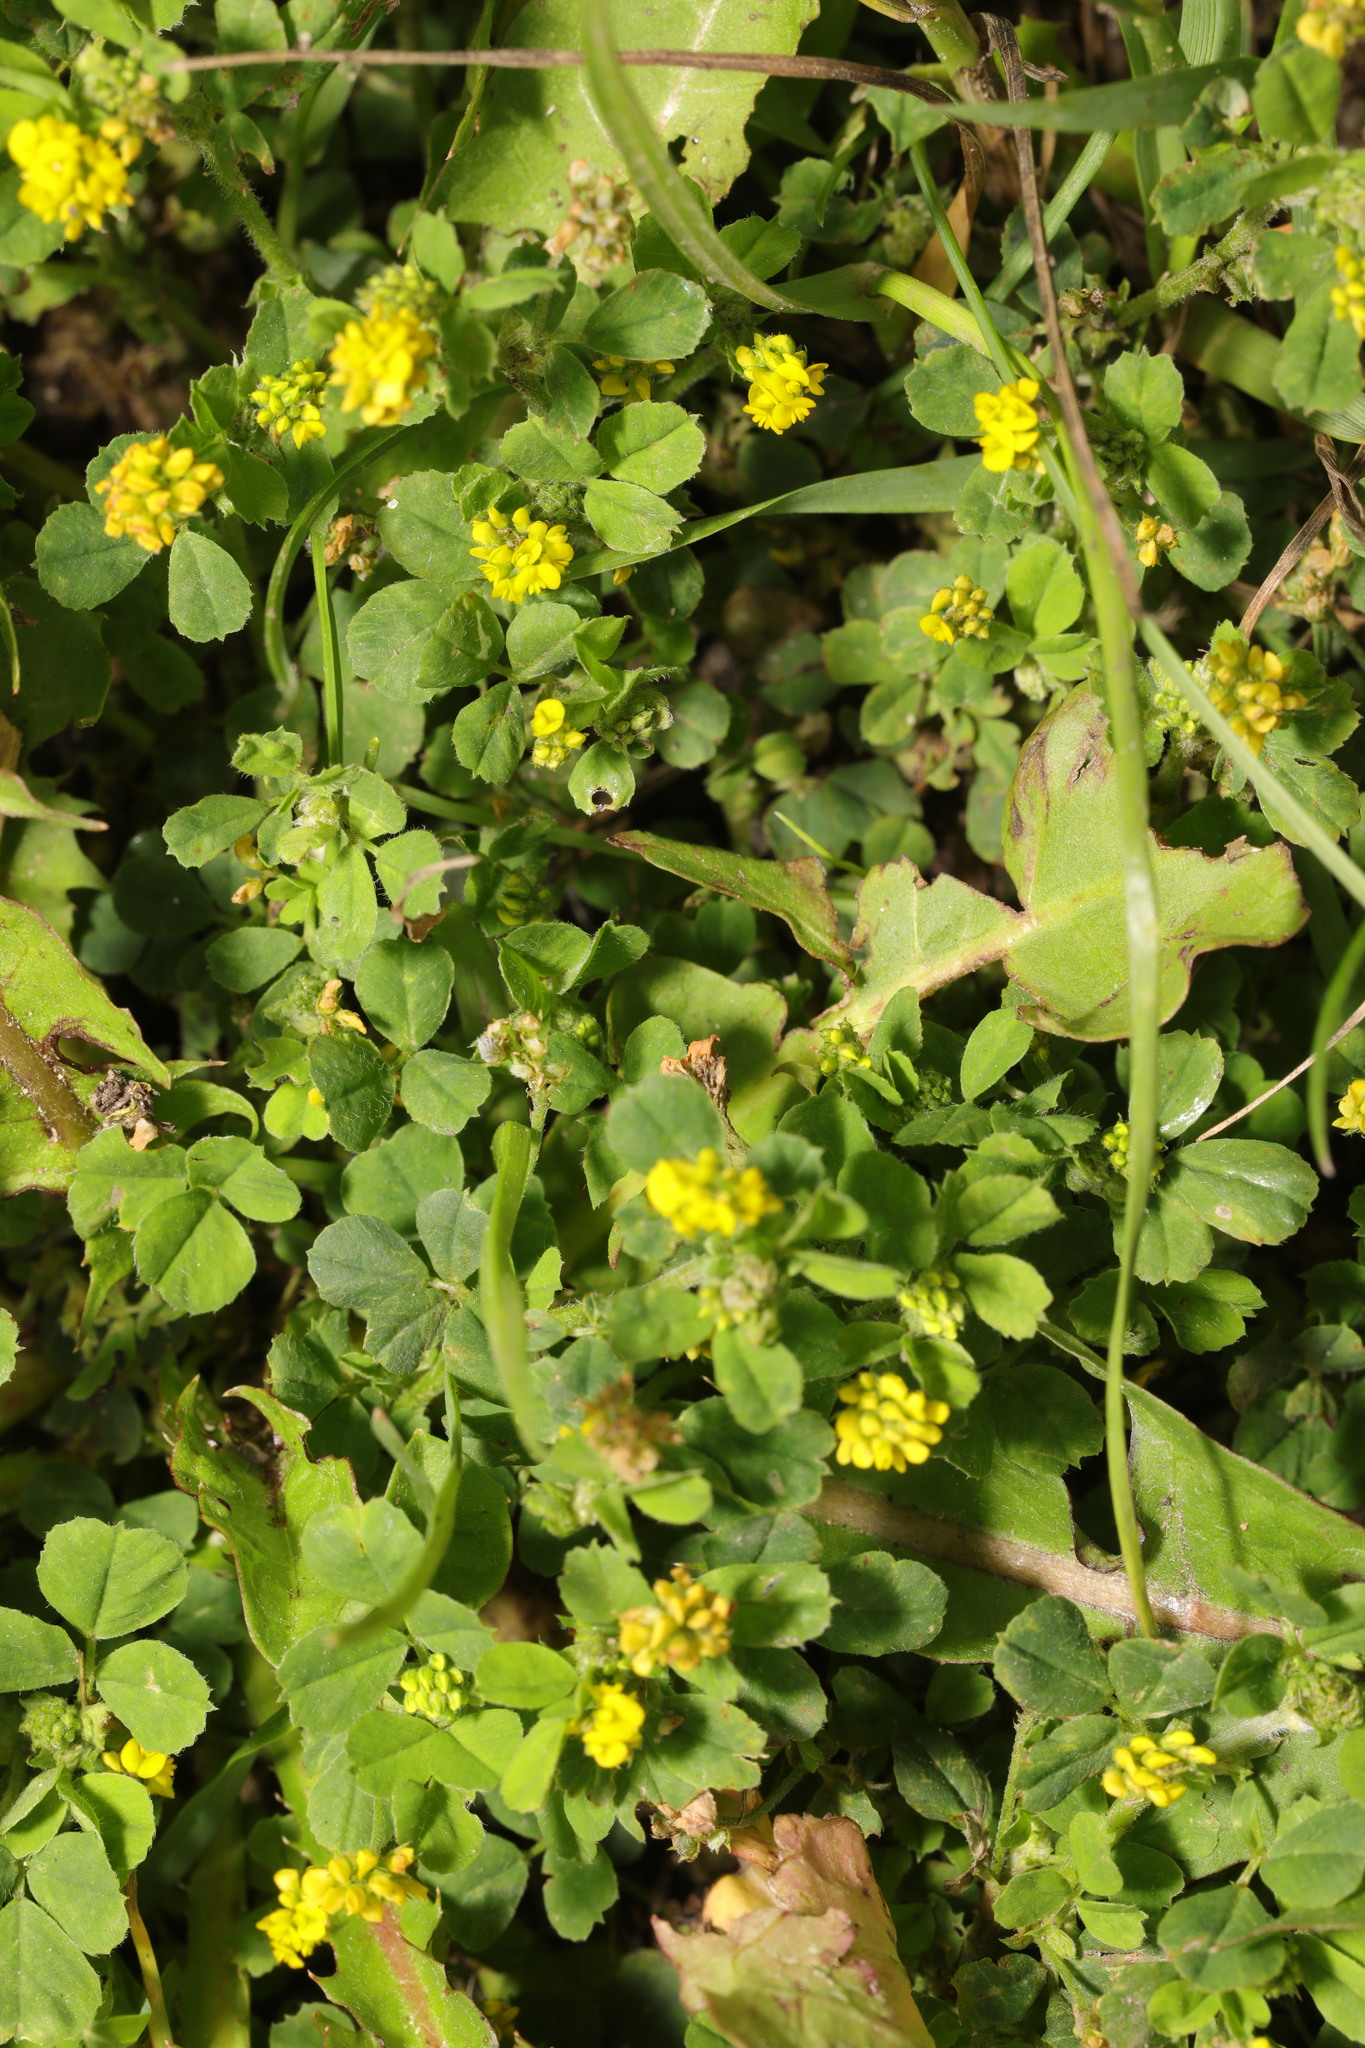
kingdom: Plantae
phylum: Tracheophyta
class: Magnoliopsida
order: Fabales
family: Fabaceae
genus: Medicago
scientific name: Medicago lupulina
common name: Black medick
